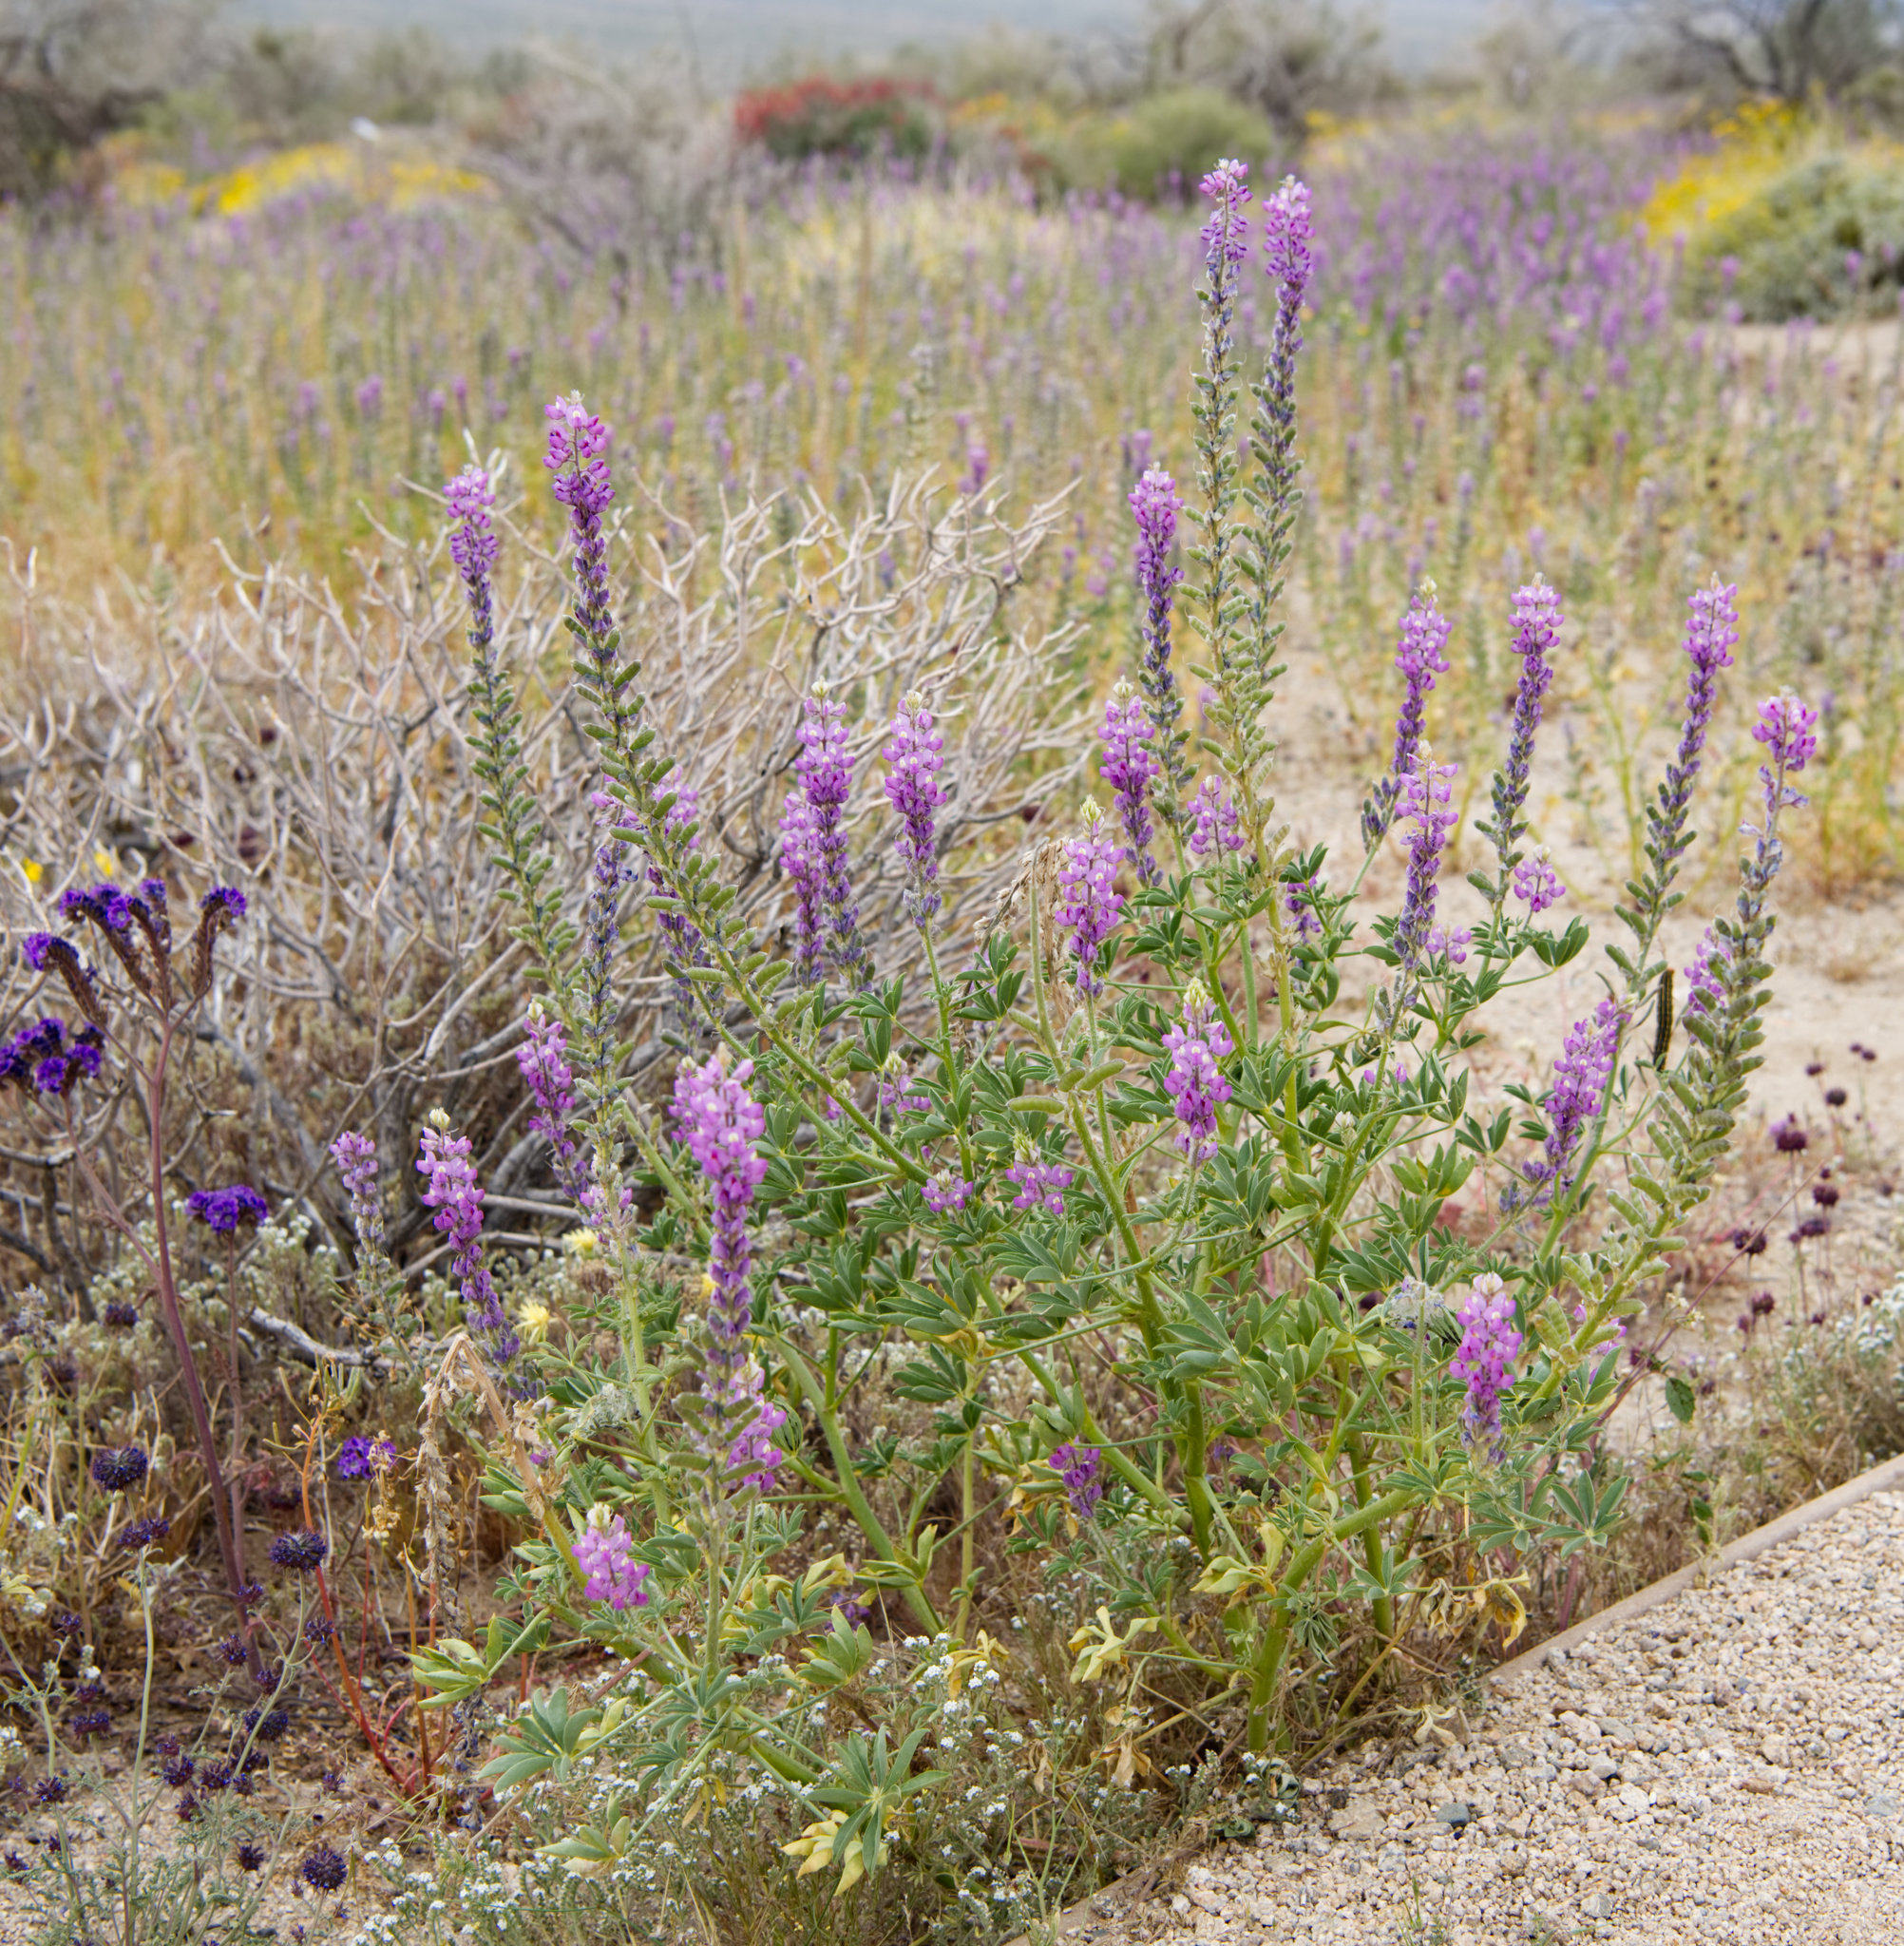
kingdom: Plantae
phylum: Tracheophyta
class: Magnoliopsida
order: Fabales
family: Fabaceae
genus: Lupinus
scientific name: Lupinus arizonicus
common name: Arizona lupine
